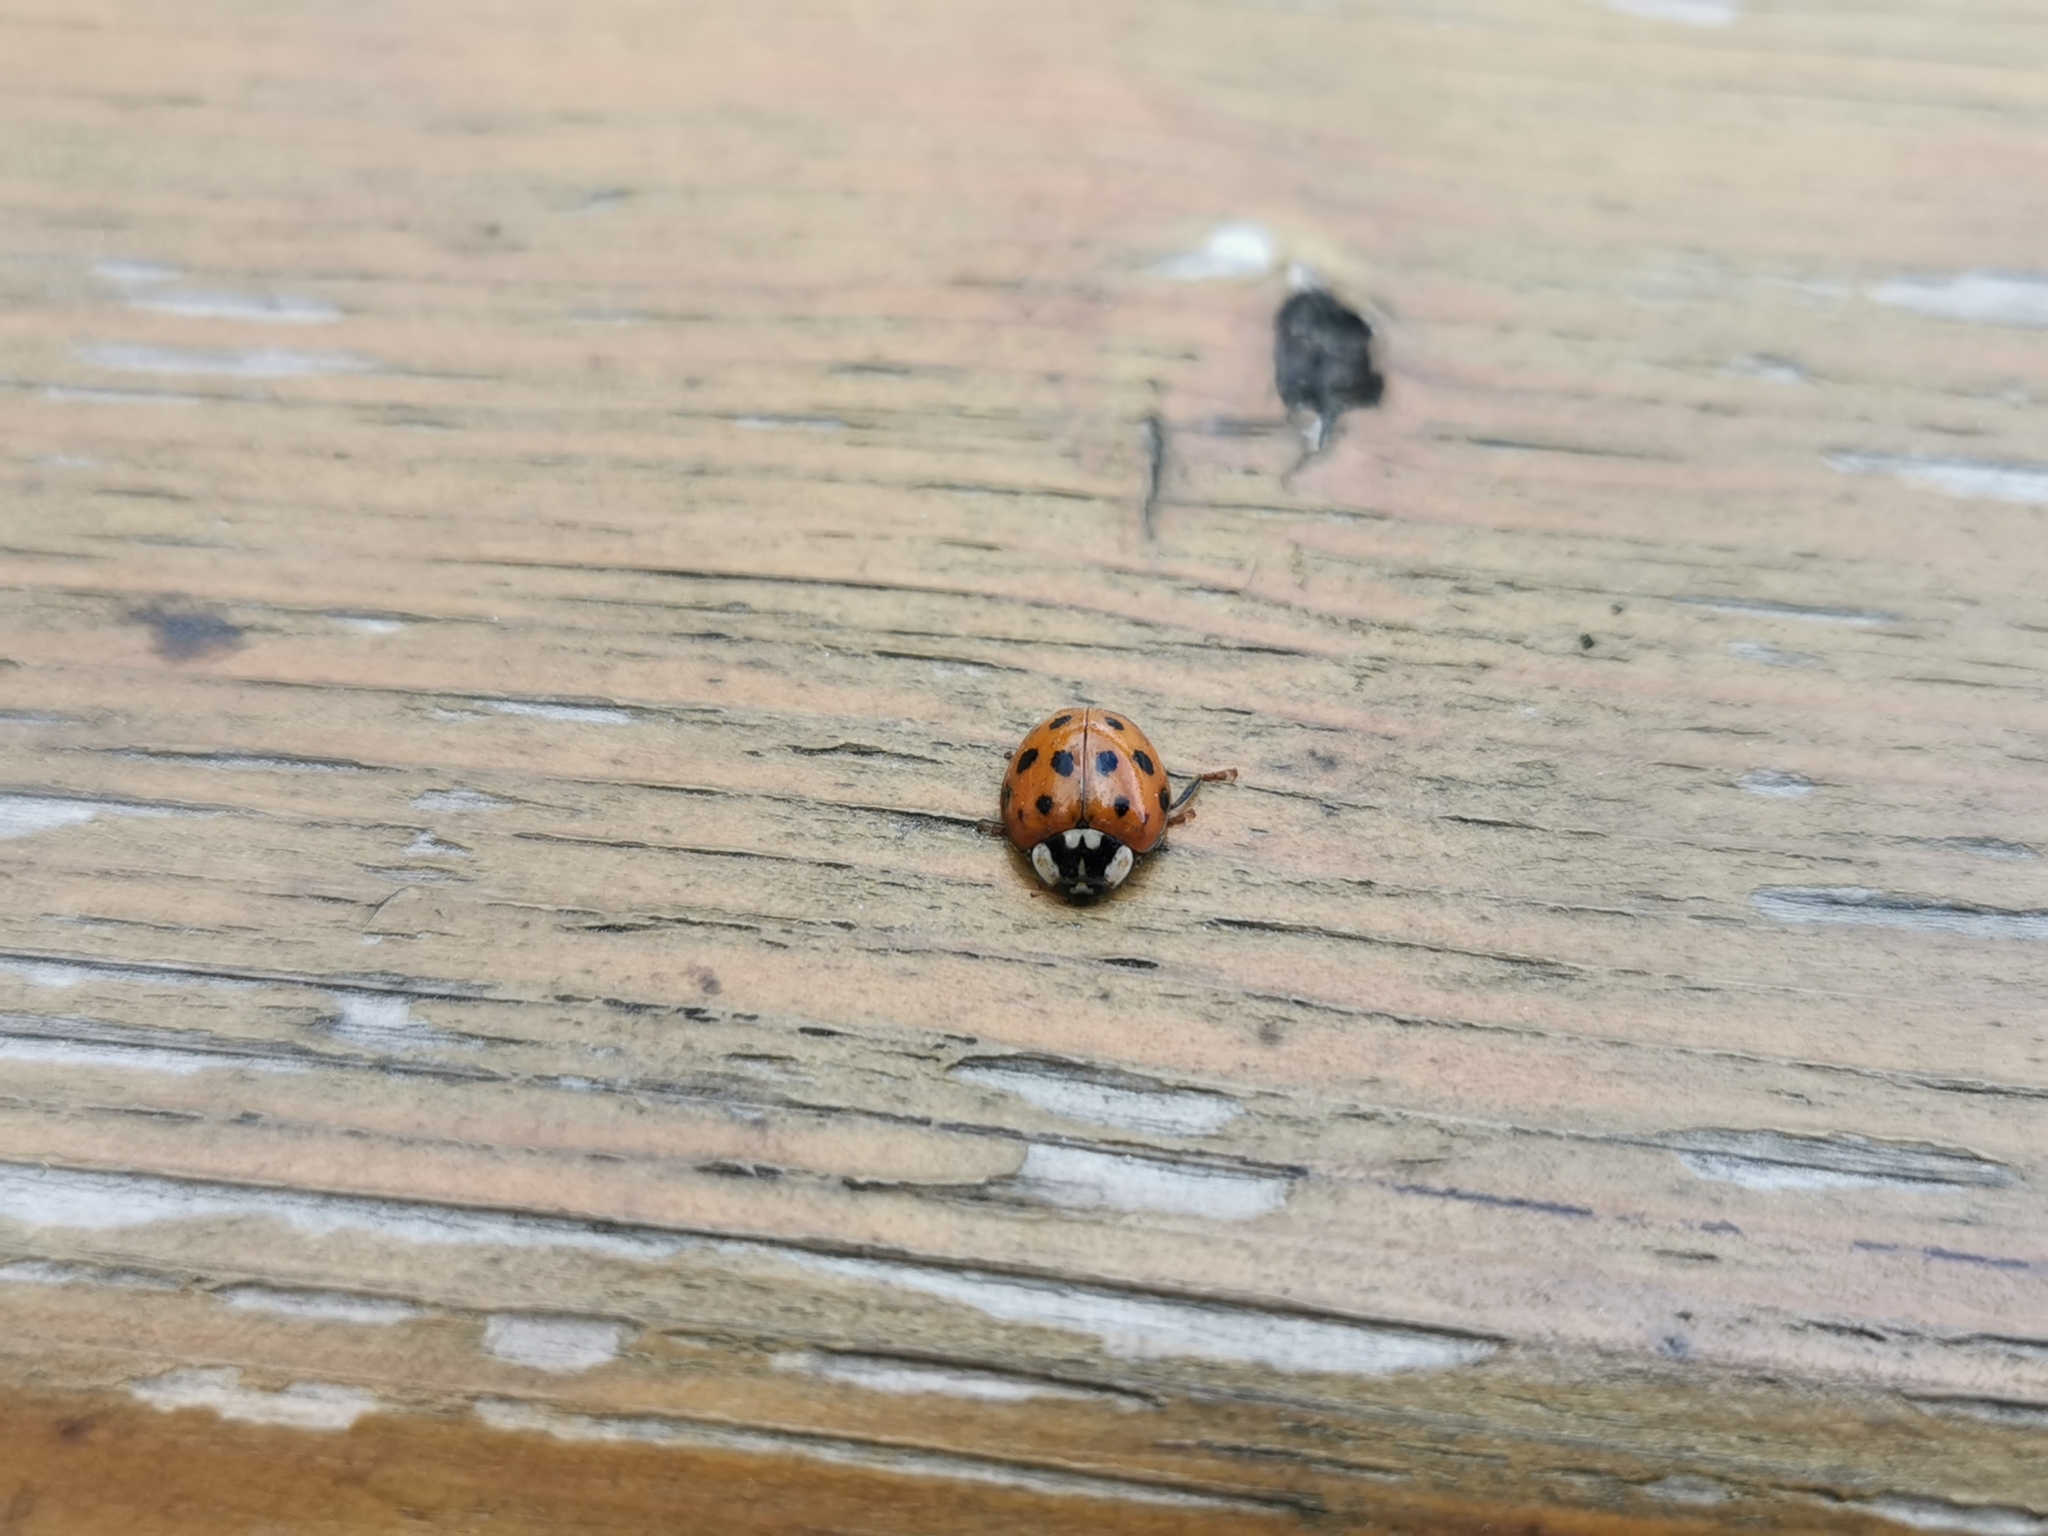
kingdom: Animalia
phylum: Arthropoda
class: Insecta
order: Coleoptera
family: Coccinellidae
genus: Harmonia
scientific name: Harmonia axyridis
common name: Harlequin ladybird
